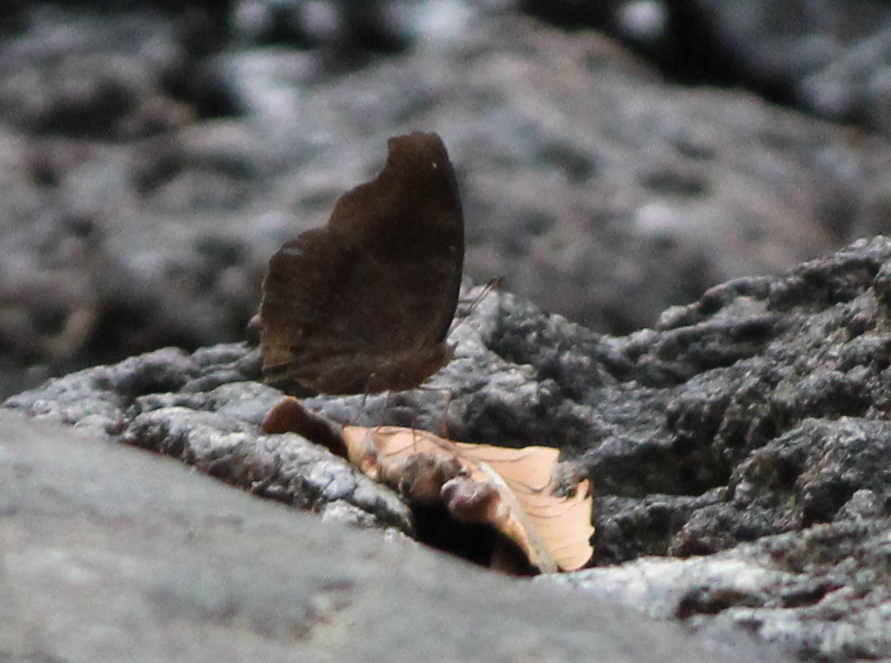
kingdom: Animalia
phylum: Arthropoda
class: Insecta
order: Lepidoptera
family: Nymphalidae
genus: Junonia
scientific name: Junonia iphita
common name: Chocolate pansy
